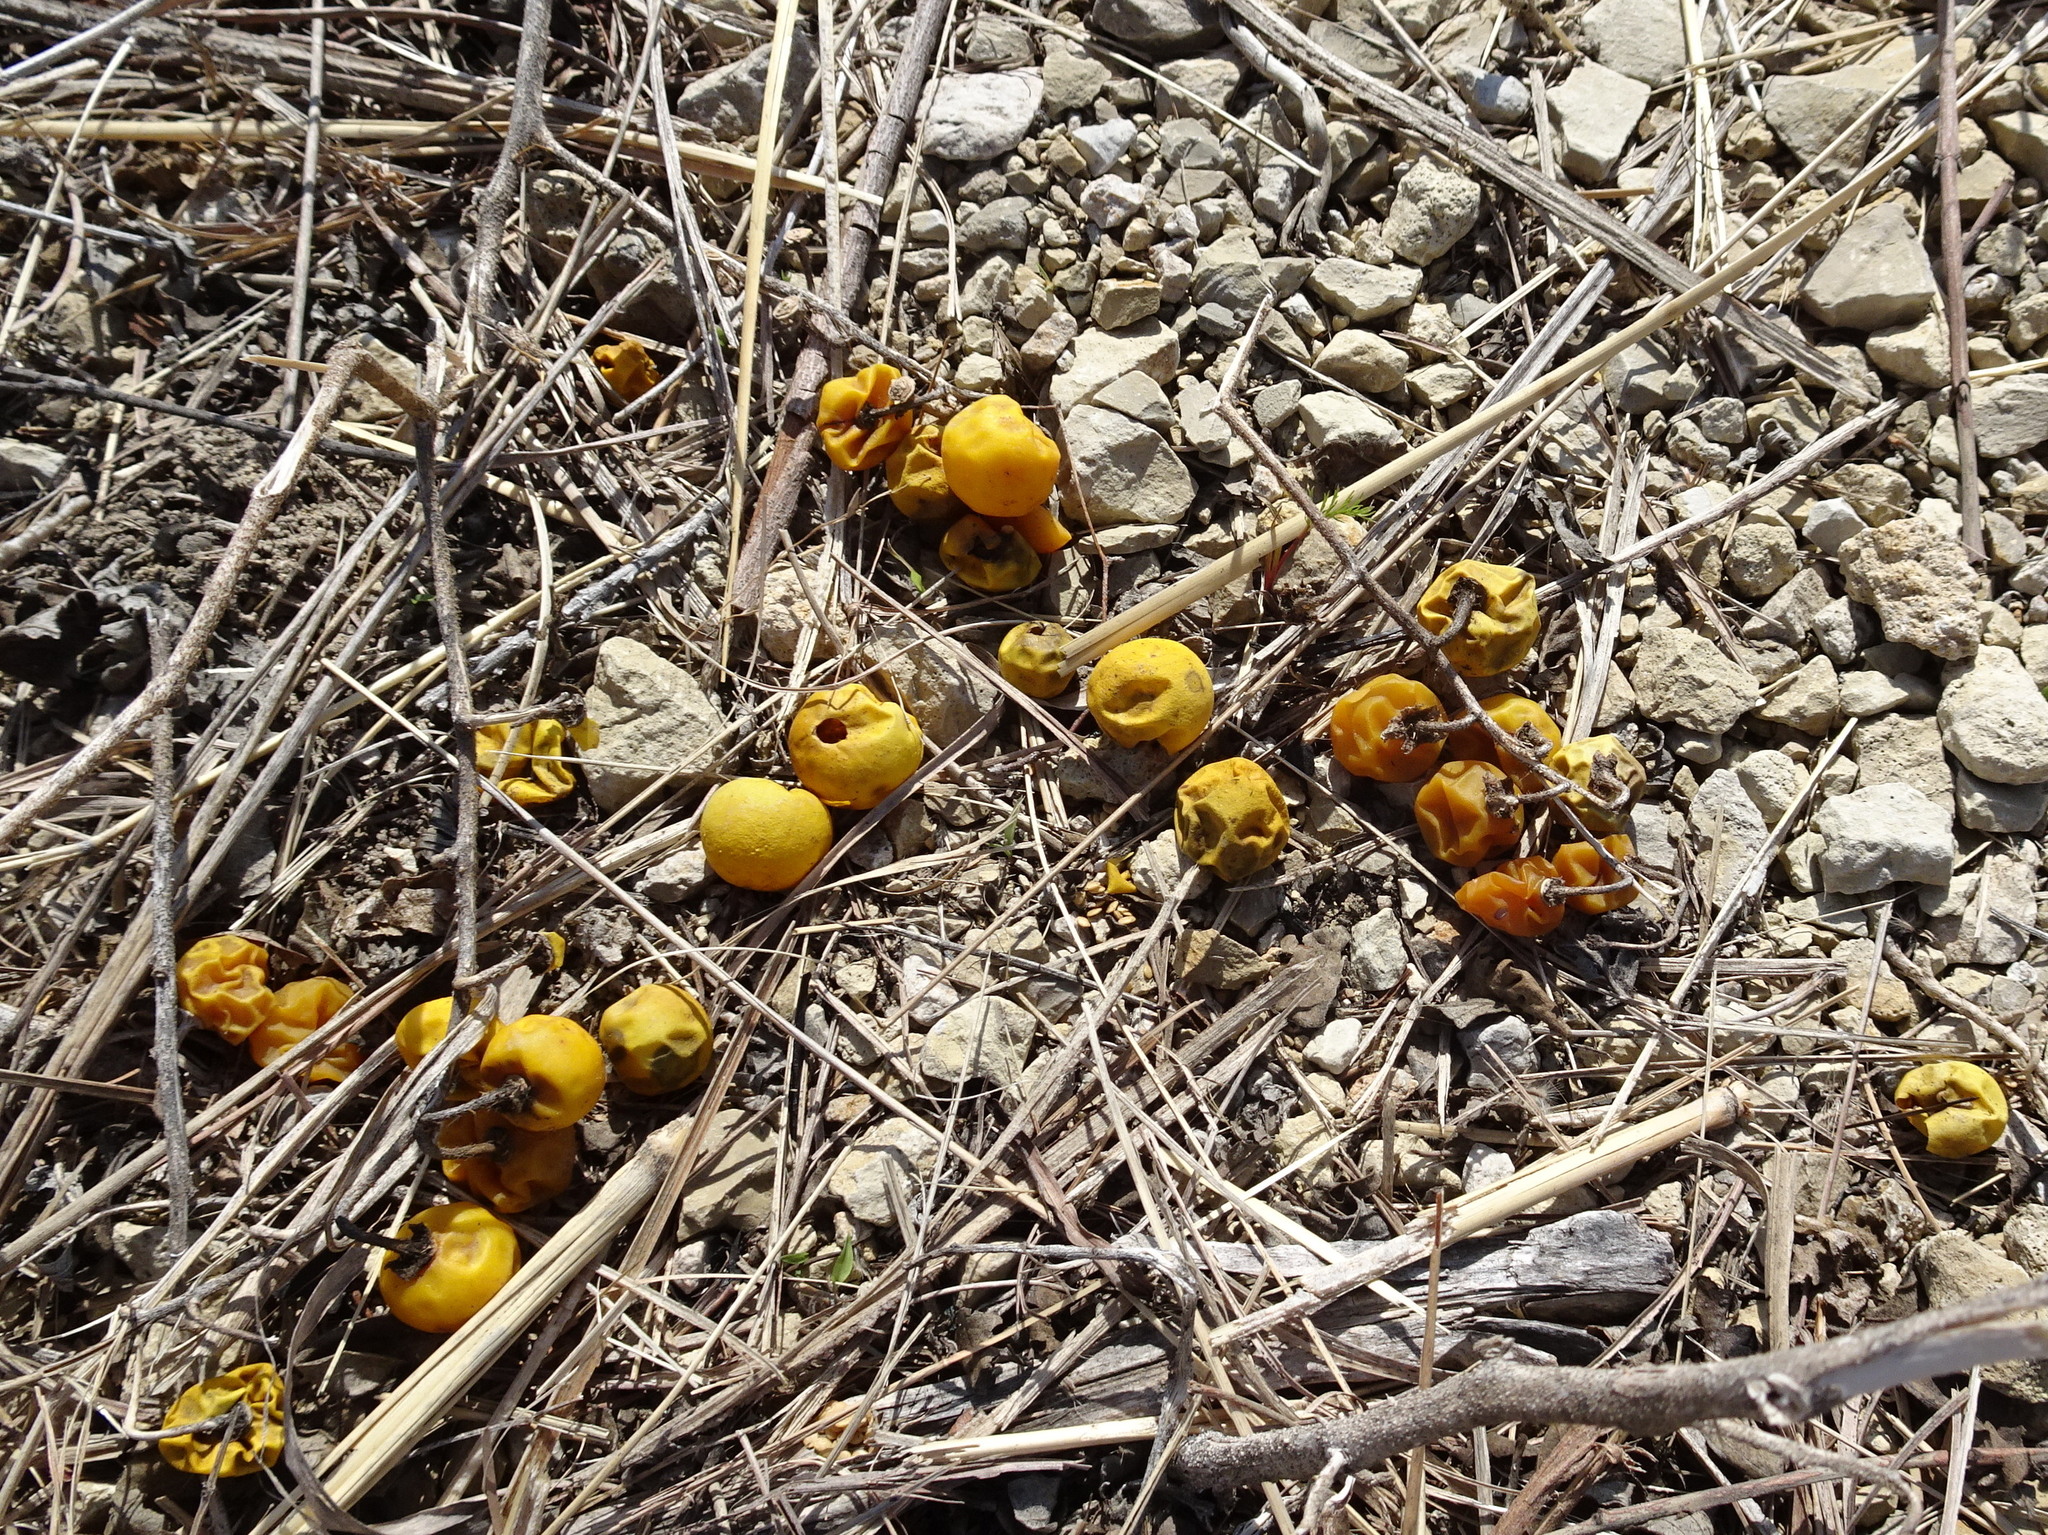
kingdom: Plantae
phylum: Tracheophyta
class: Magnoliopsida
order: Solanales
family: Solanaceae
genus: Solanum
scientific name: Solanum carolinense
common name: Horse-nettle
